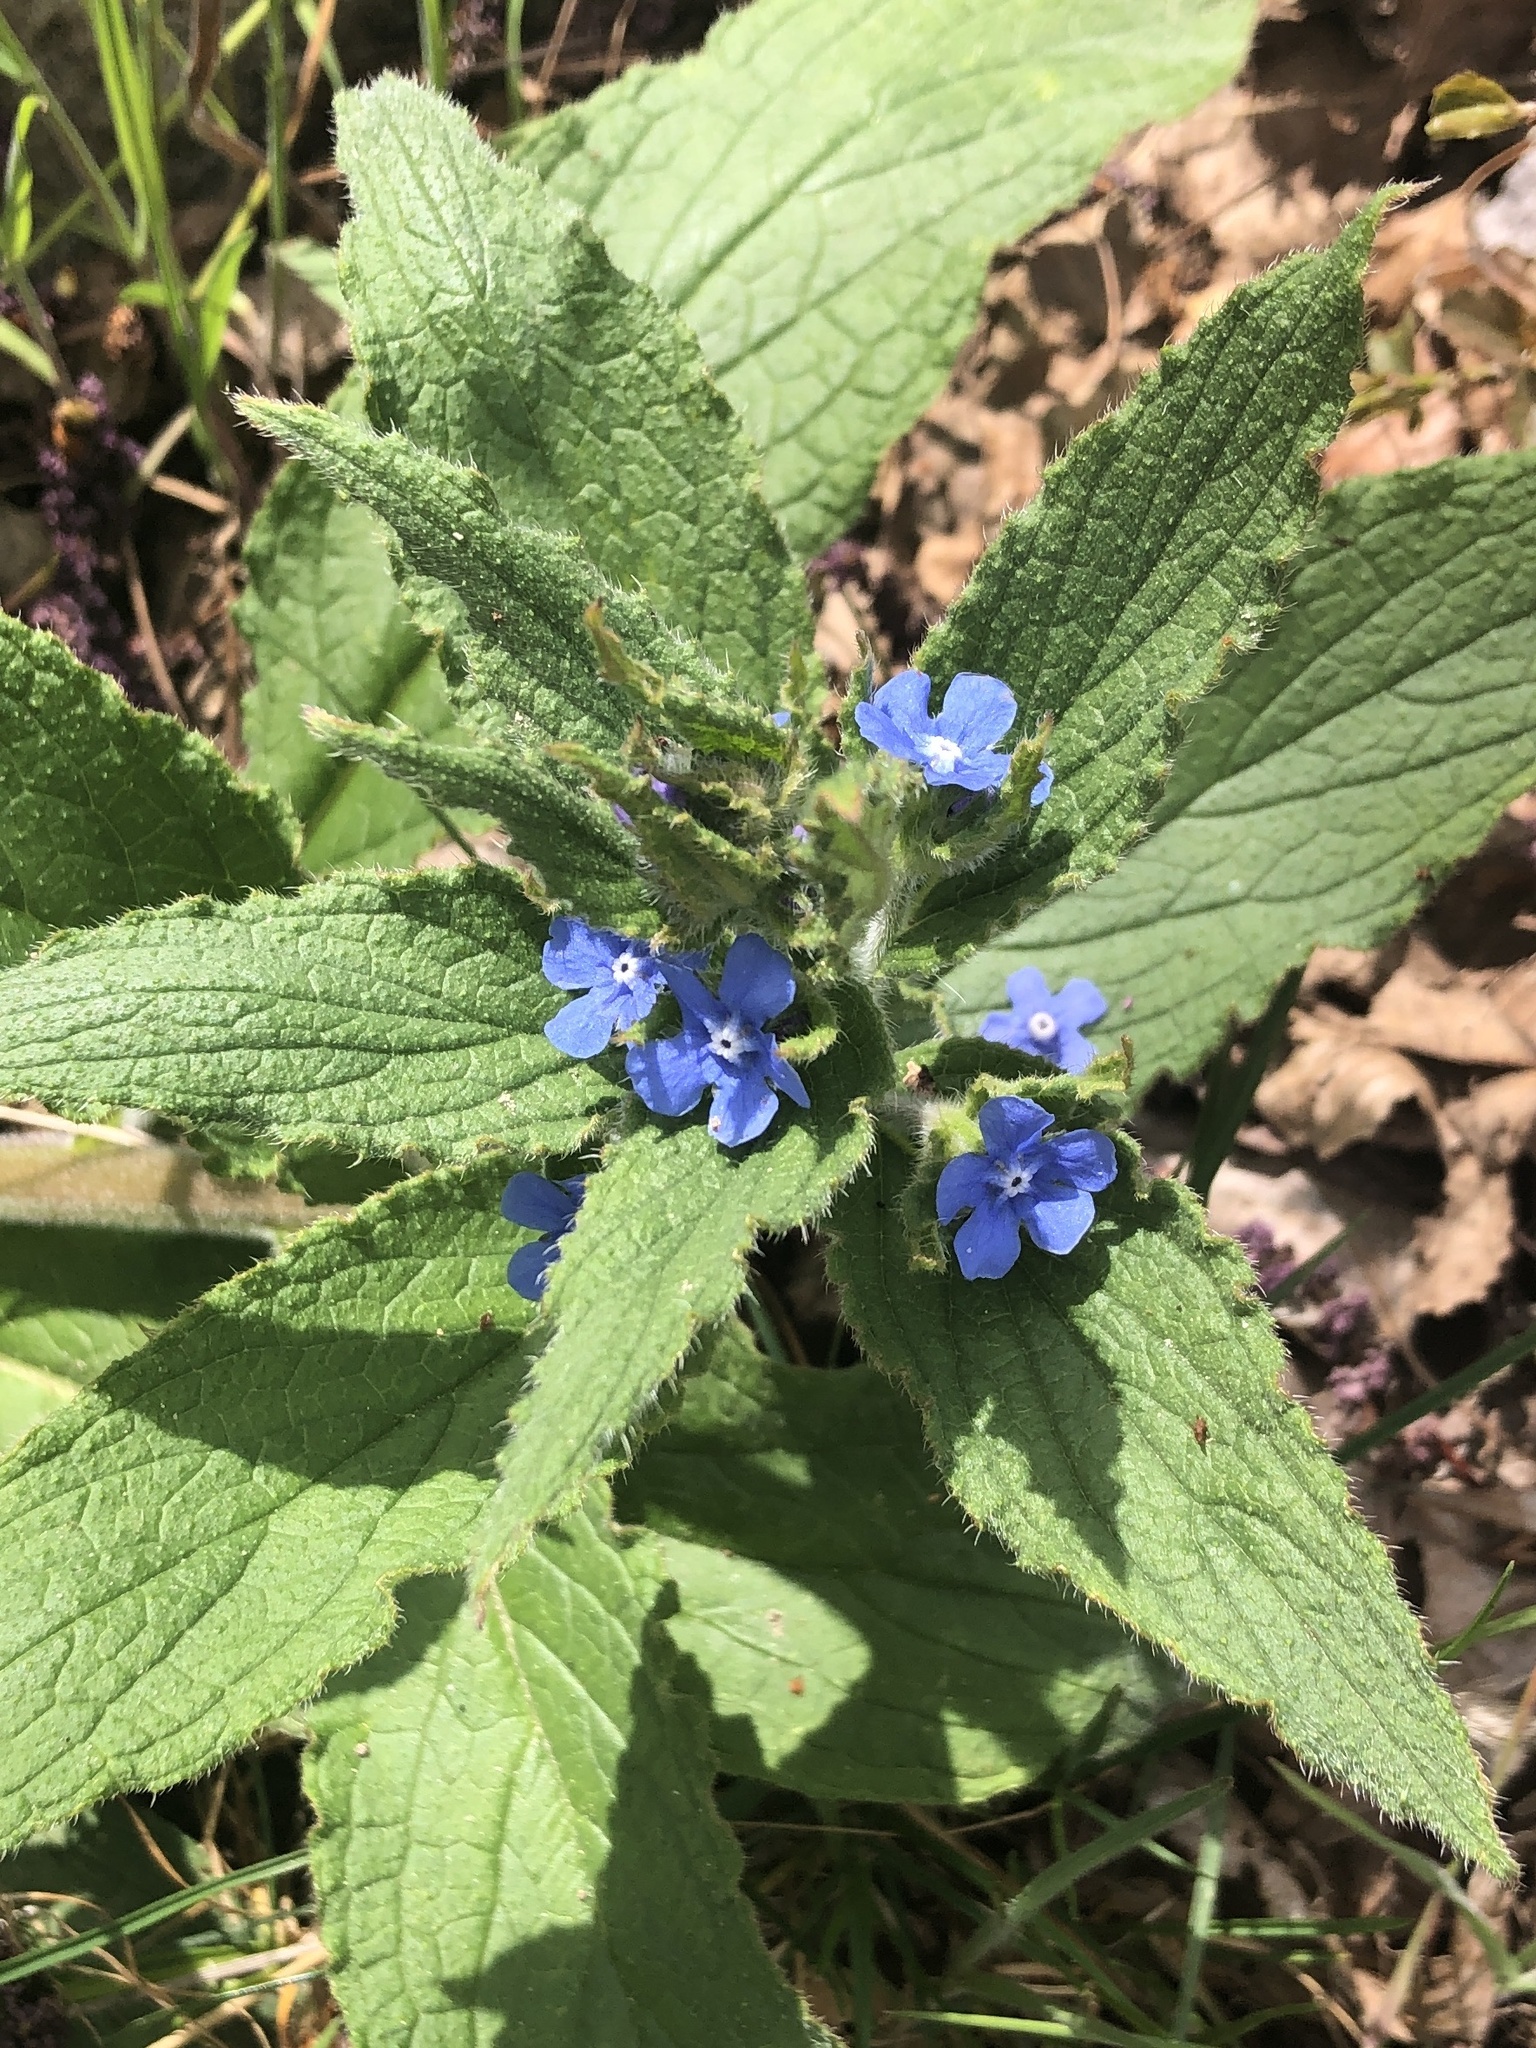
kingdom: Plantae
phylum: Tracheophyta
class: Magnoliopsida
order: Boraginales
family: Boraginaceae
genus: Pentaglottis
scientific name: Pentaglottis sempervirens
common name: Green alkanet
